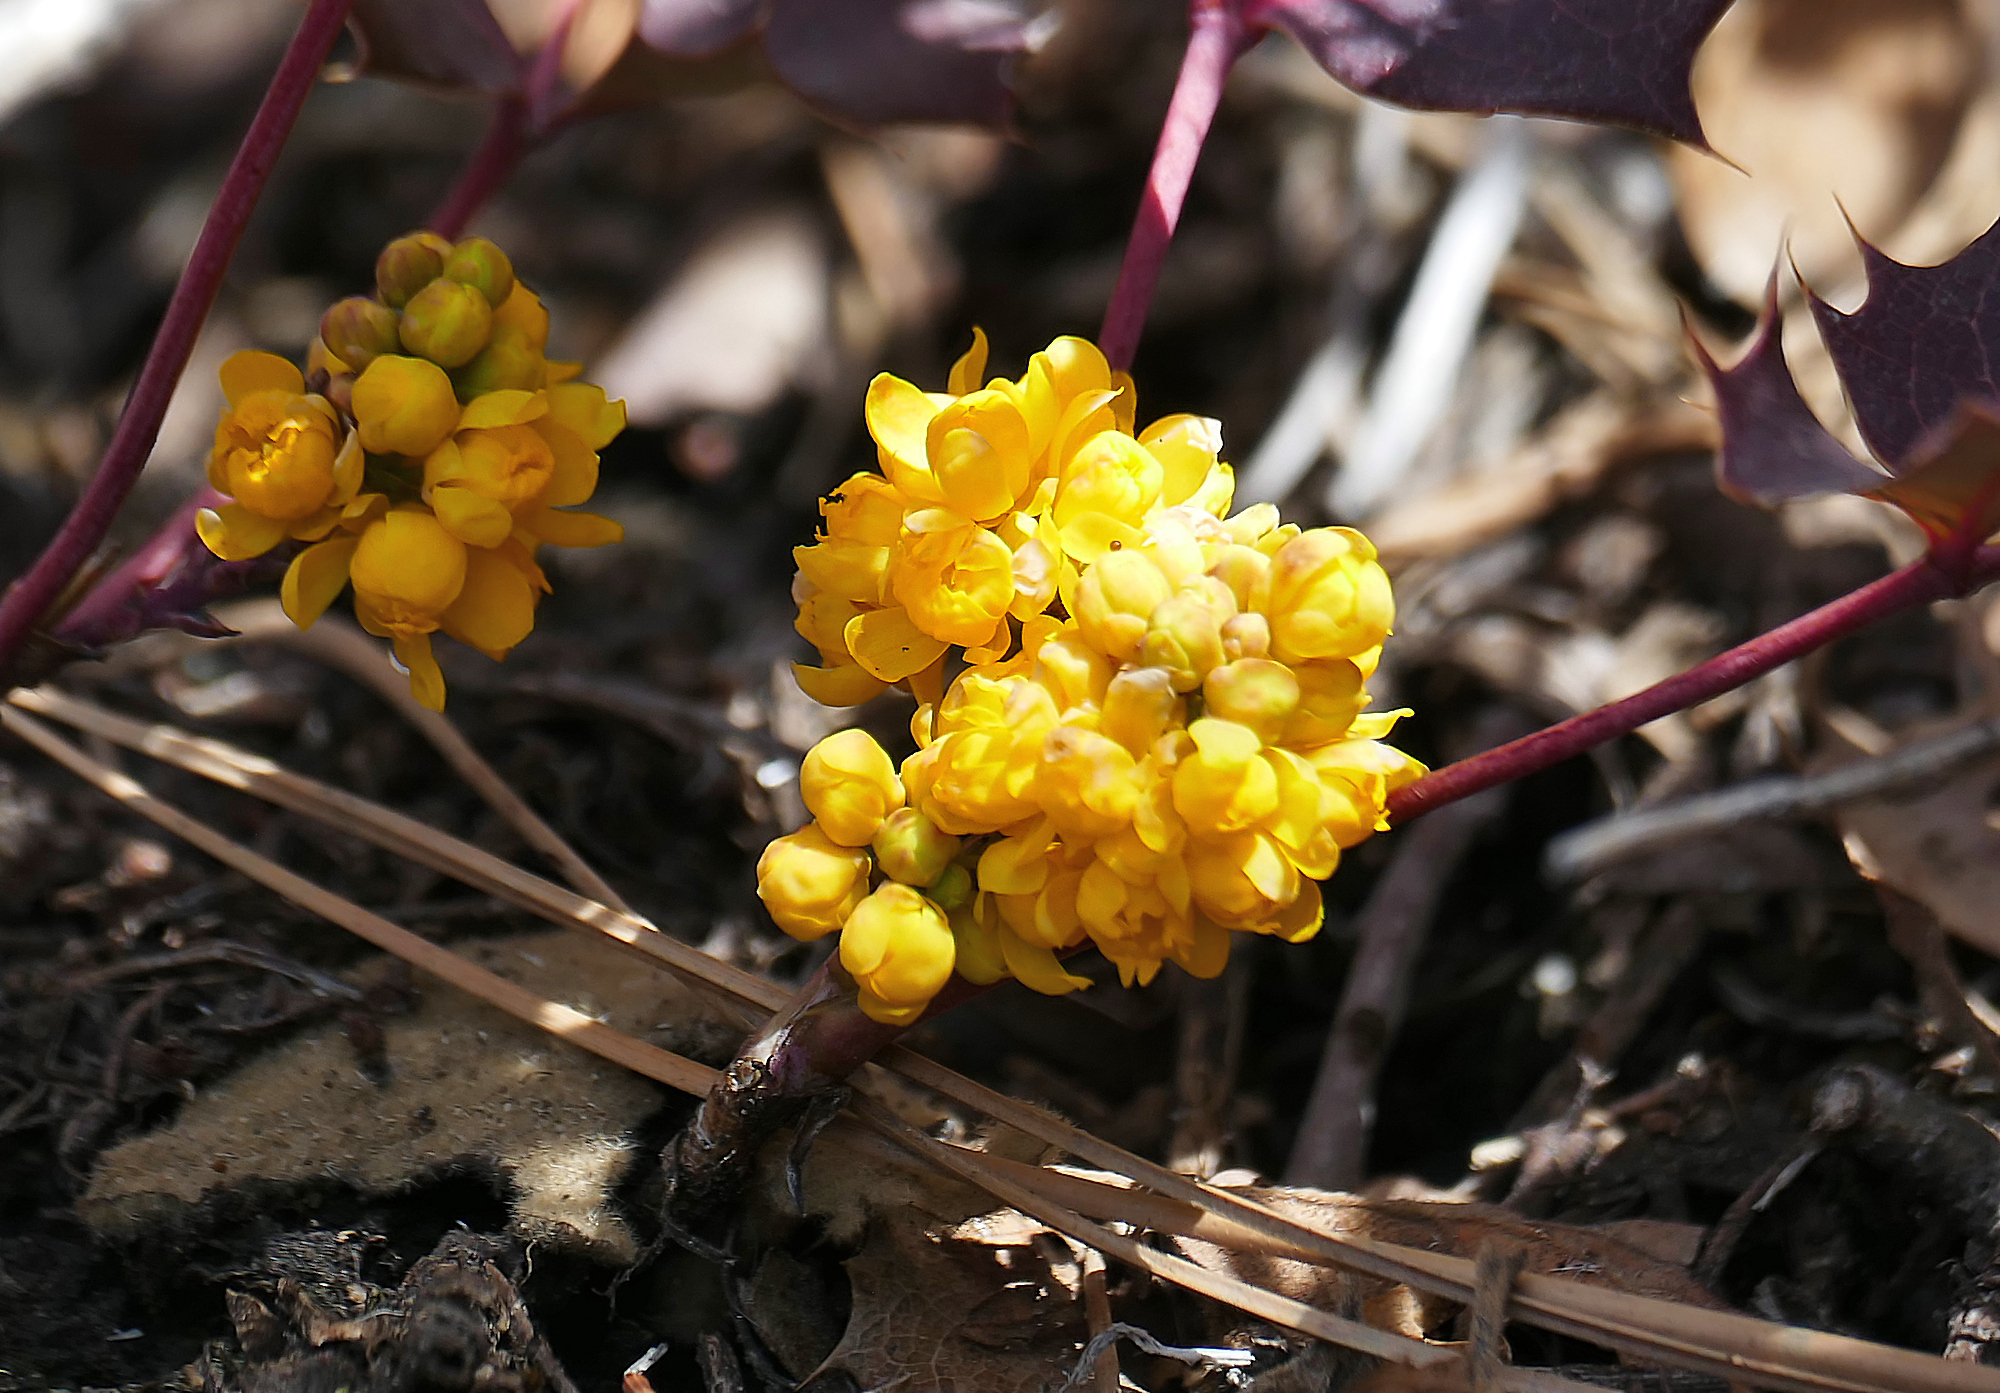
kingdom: Plantae
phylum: Tracheophyta
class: Magnoliopsida
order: Ranunculales
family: Berberidaceae
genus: Mahonia
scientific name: Mahonia repens
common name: Creeping oregon-grape
